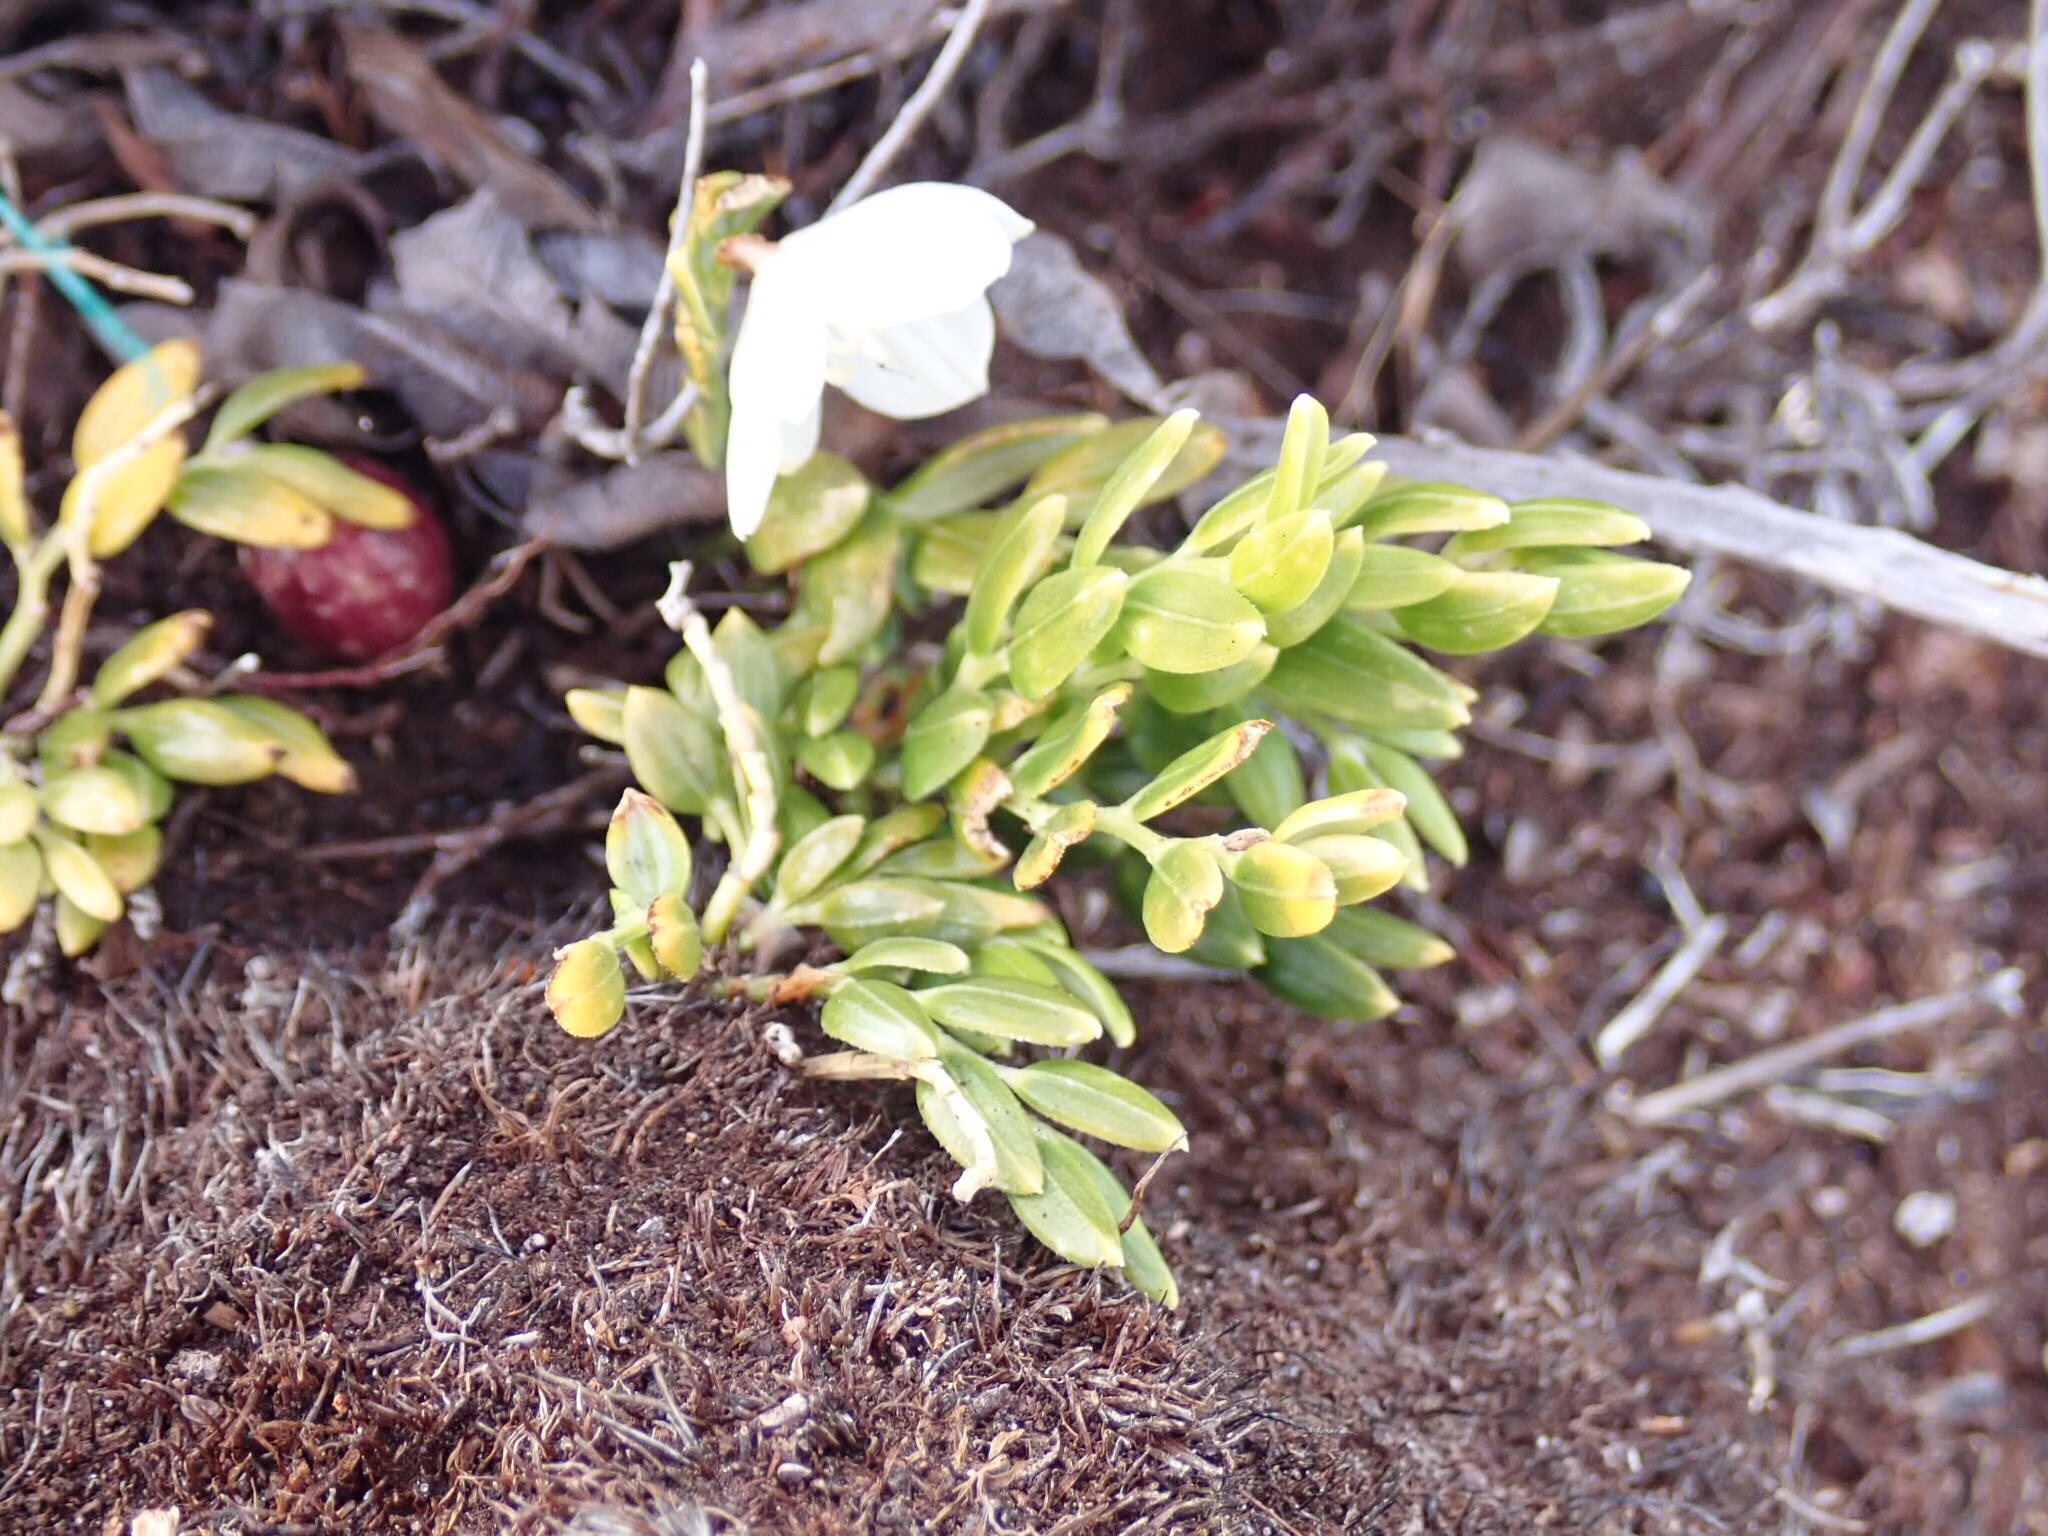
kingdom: Plantae
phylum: Tracheophyta
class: Liliopsida
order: Liliales
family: Alstroemeriaceae
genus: Luzuriaga
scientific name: Luzuriaga marginata
